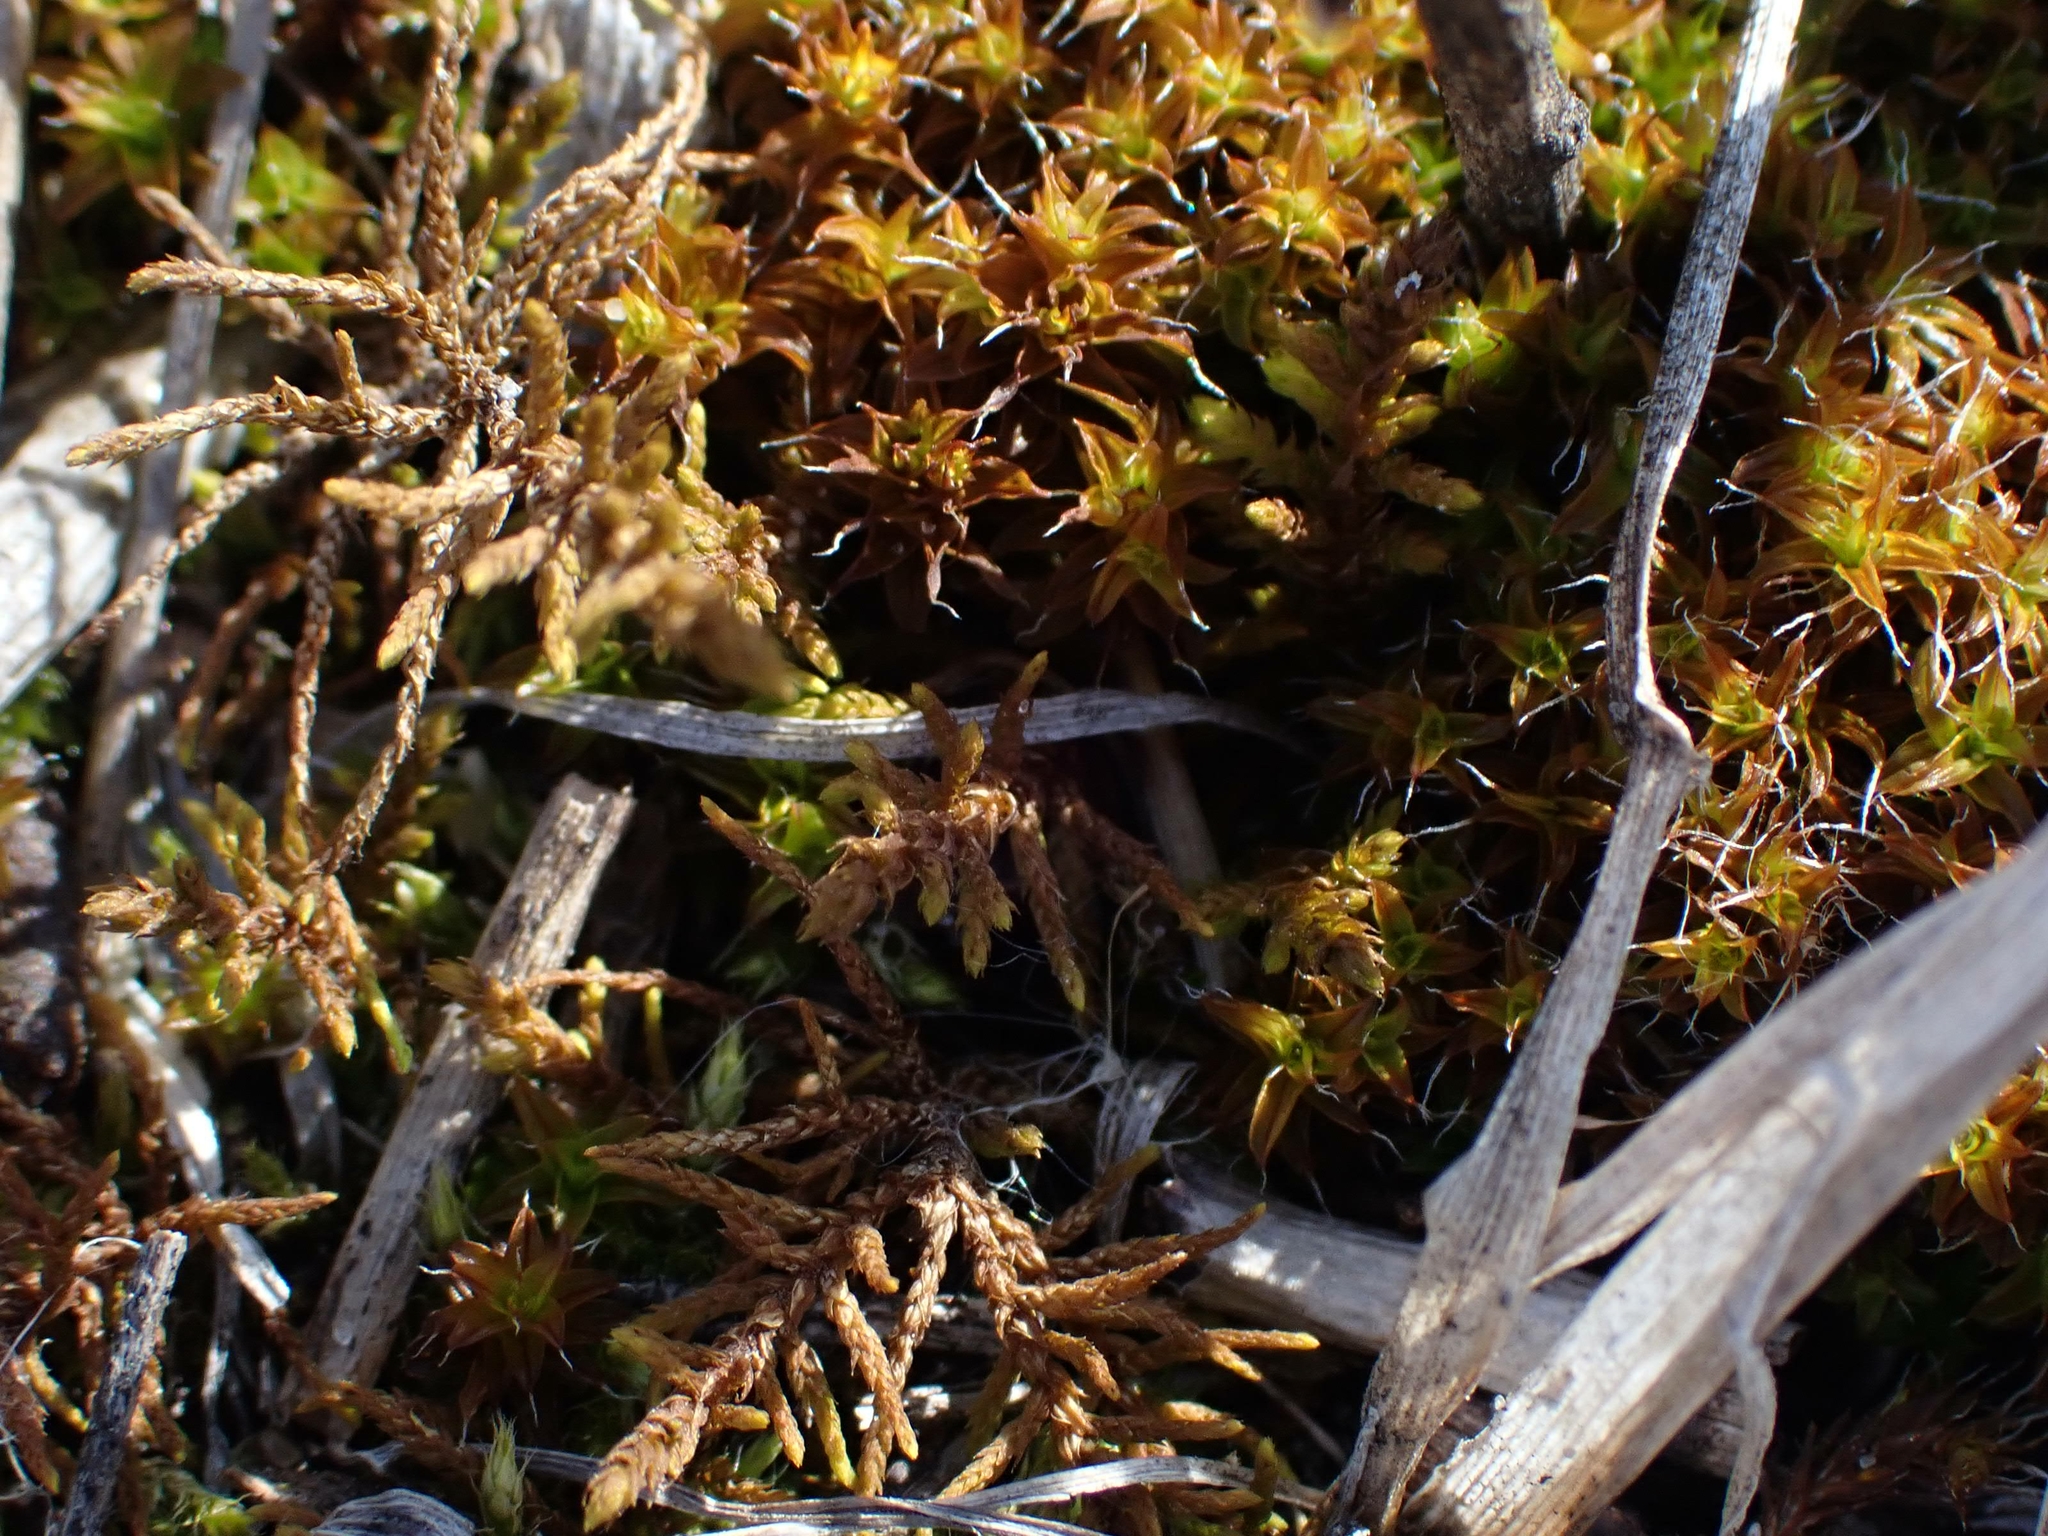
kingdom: Plantae
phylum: Bryophyta
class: Bryopsida
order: Hypnales
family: Thuidiaceae
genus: Abietinella
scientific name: Abietinella abietina
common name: Wiry fern moss
